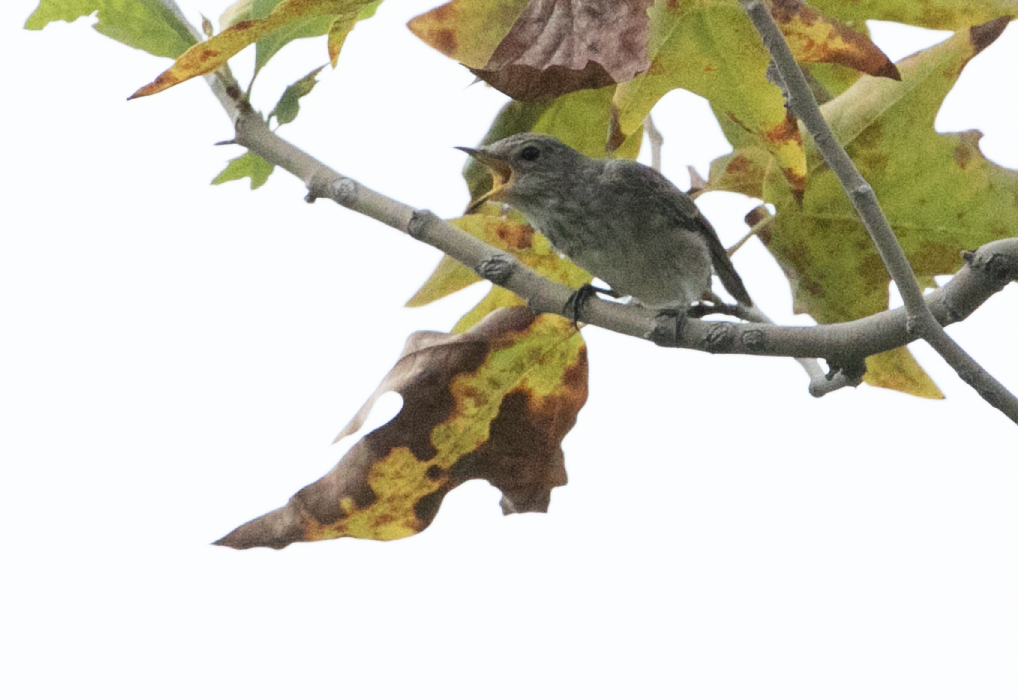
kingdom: Animalia
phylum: Chordata
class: Aves
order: Passeriformes
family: Muscicapidae
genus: Muscicapa
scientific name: Muscicapa striata
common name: Spotted flycatcher
